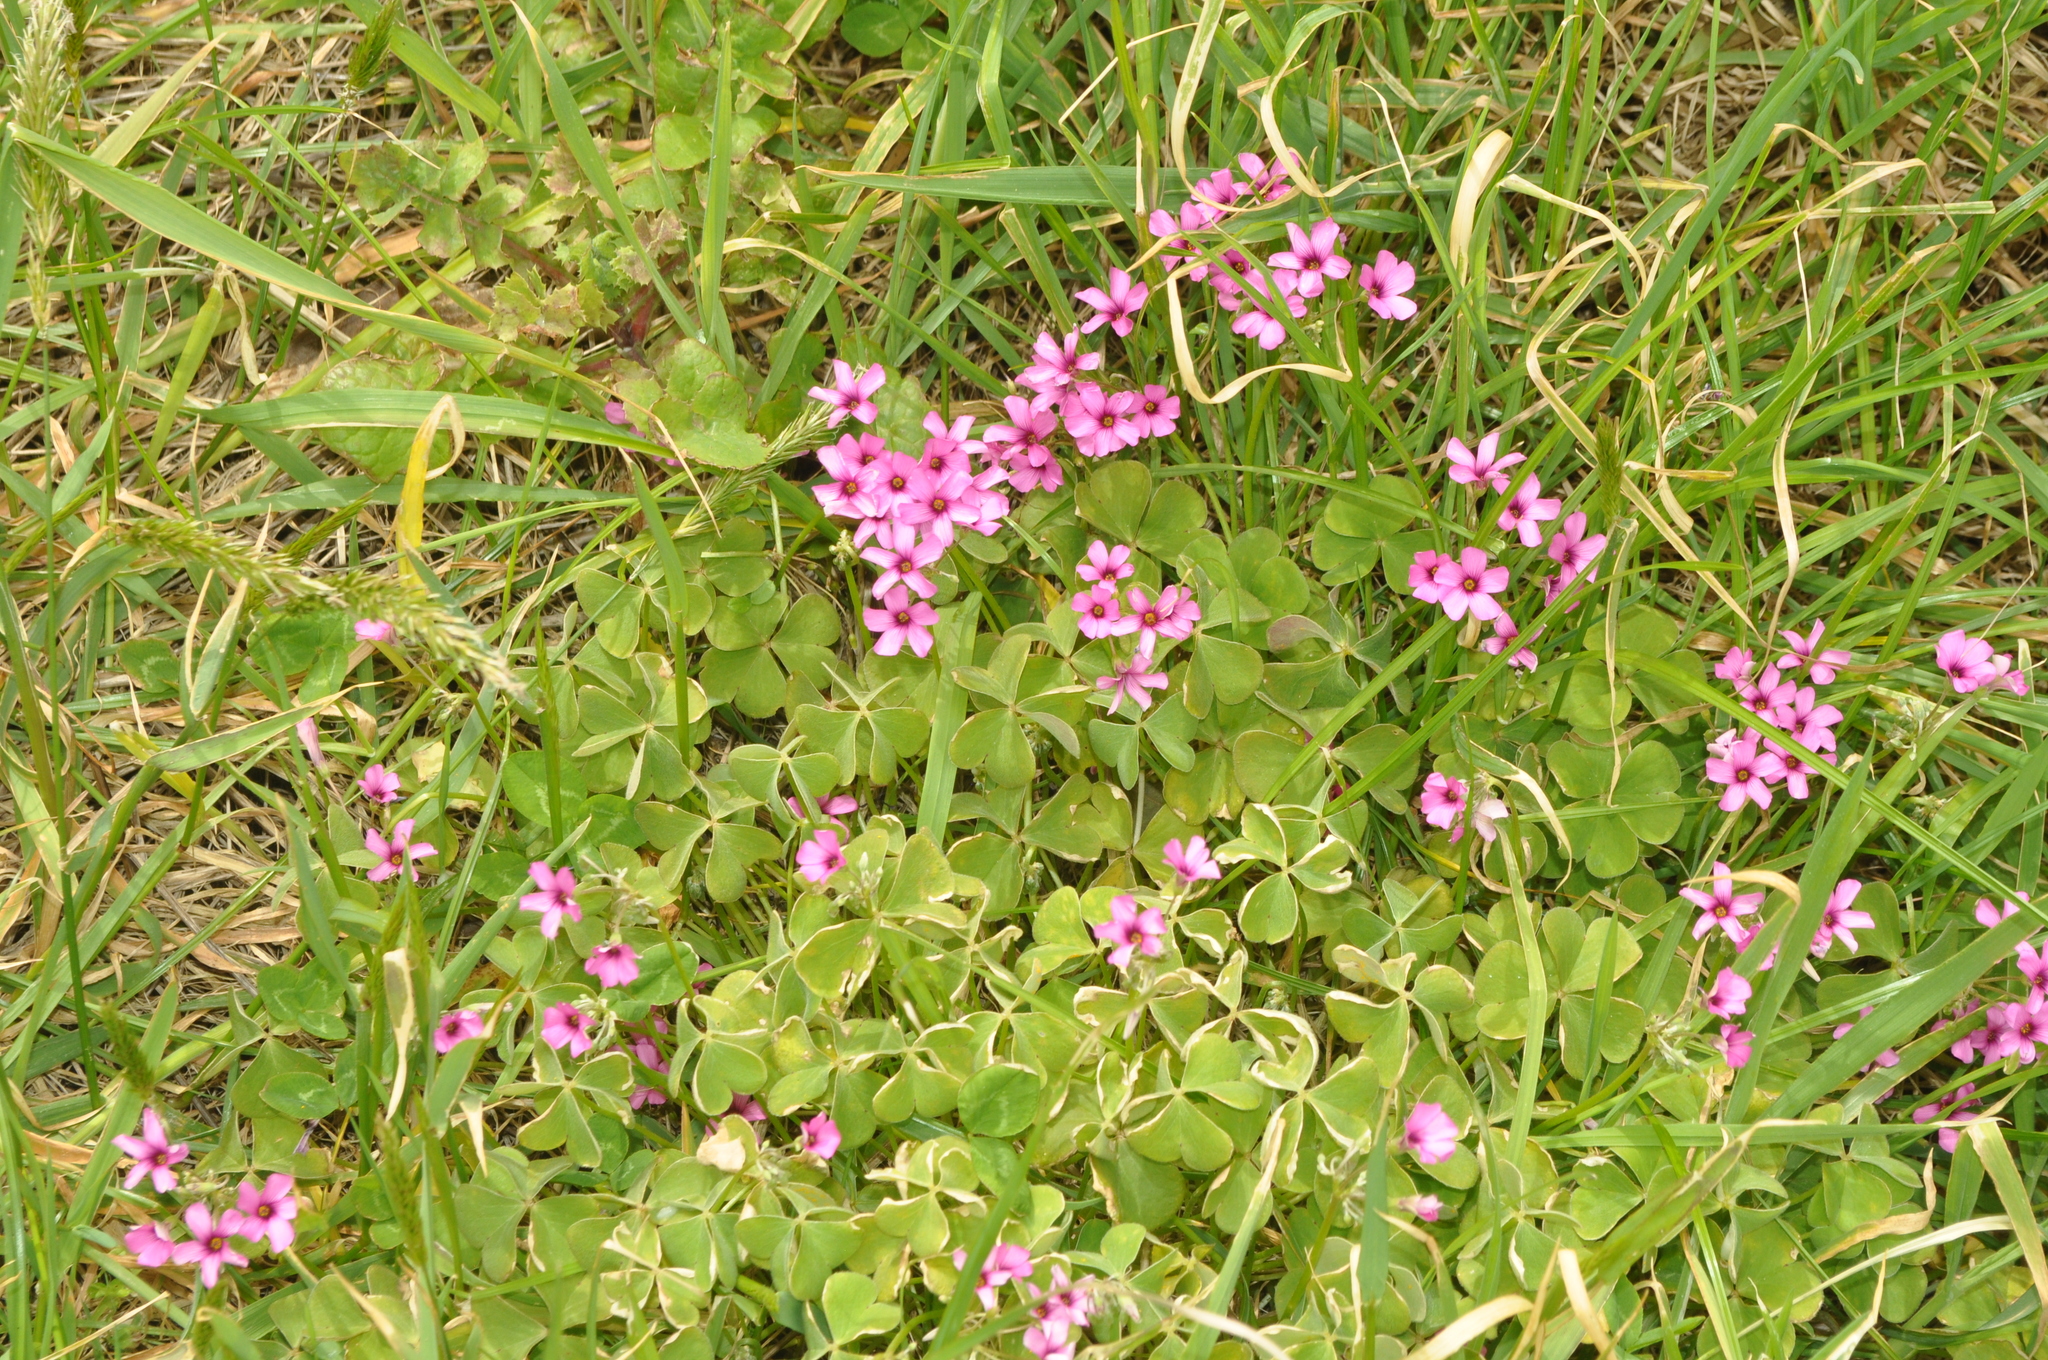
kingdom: Plantae
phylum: Tracheophyta
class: Magnoliopsida
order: Oxalidales
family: Oxalidaceae
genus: Oxalis
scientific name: Oxalis articulata
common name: Pink-sorrel
